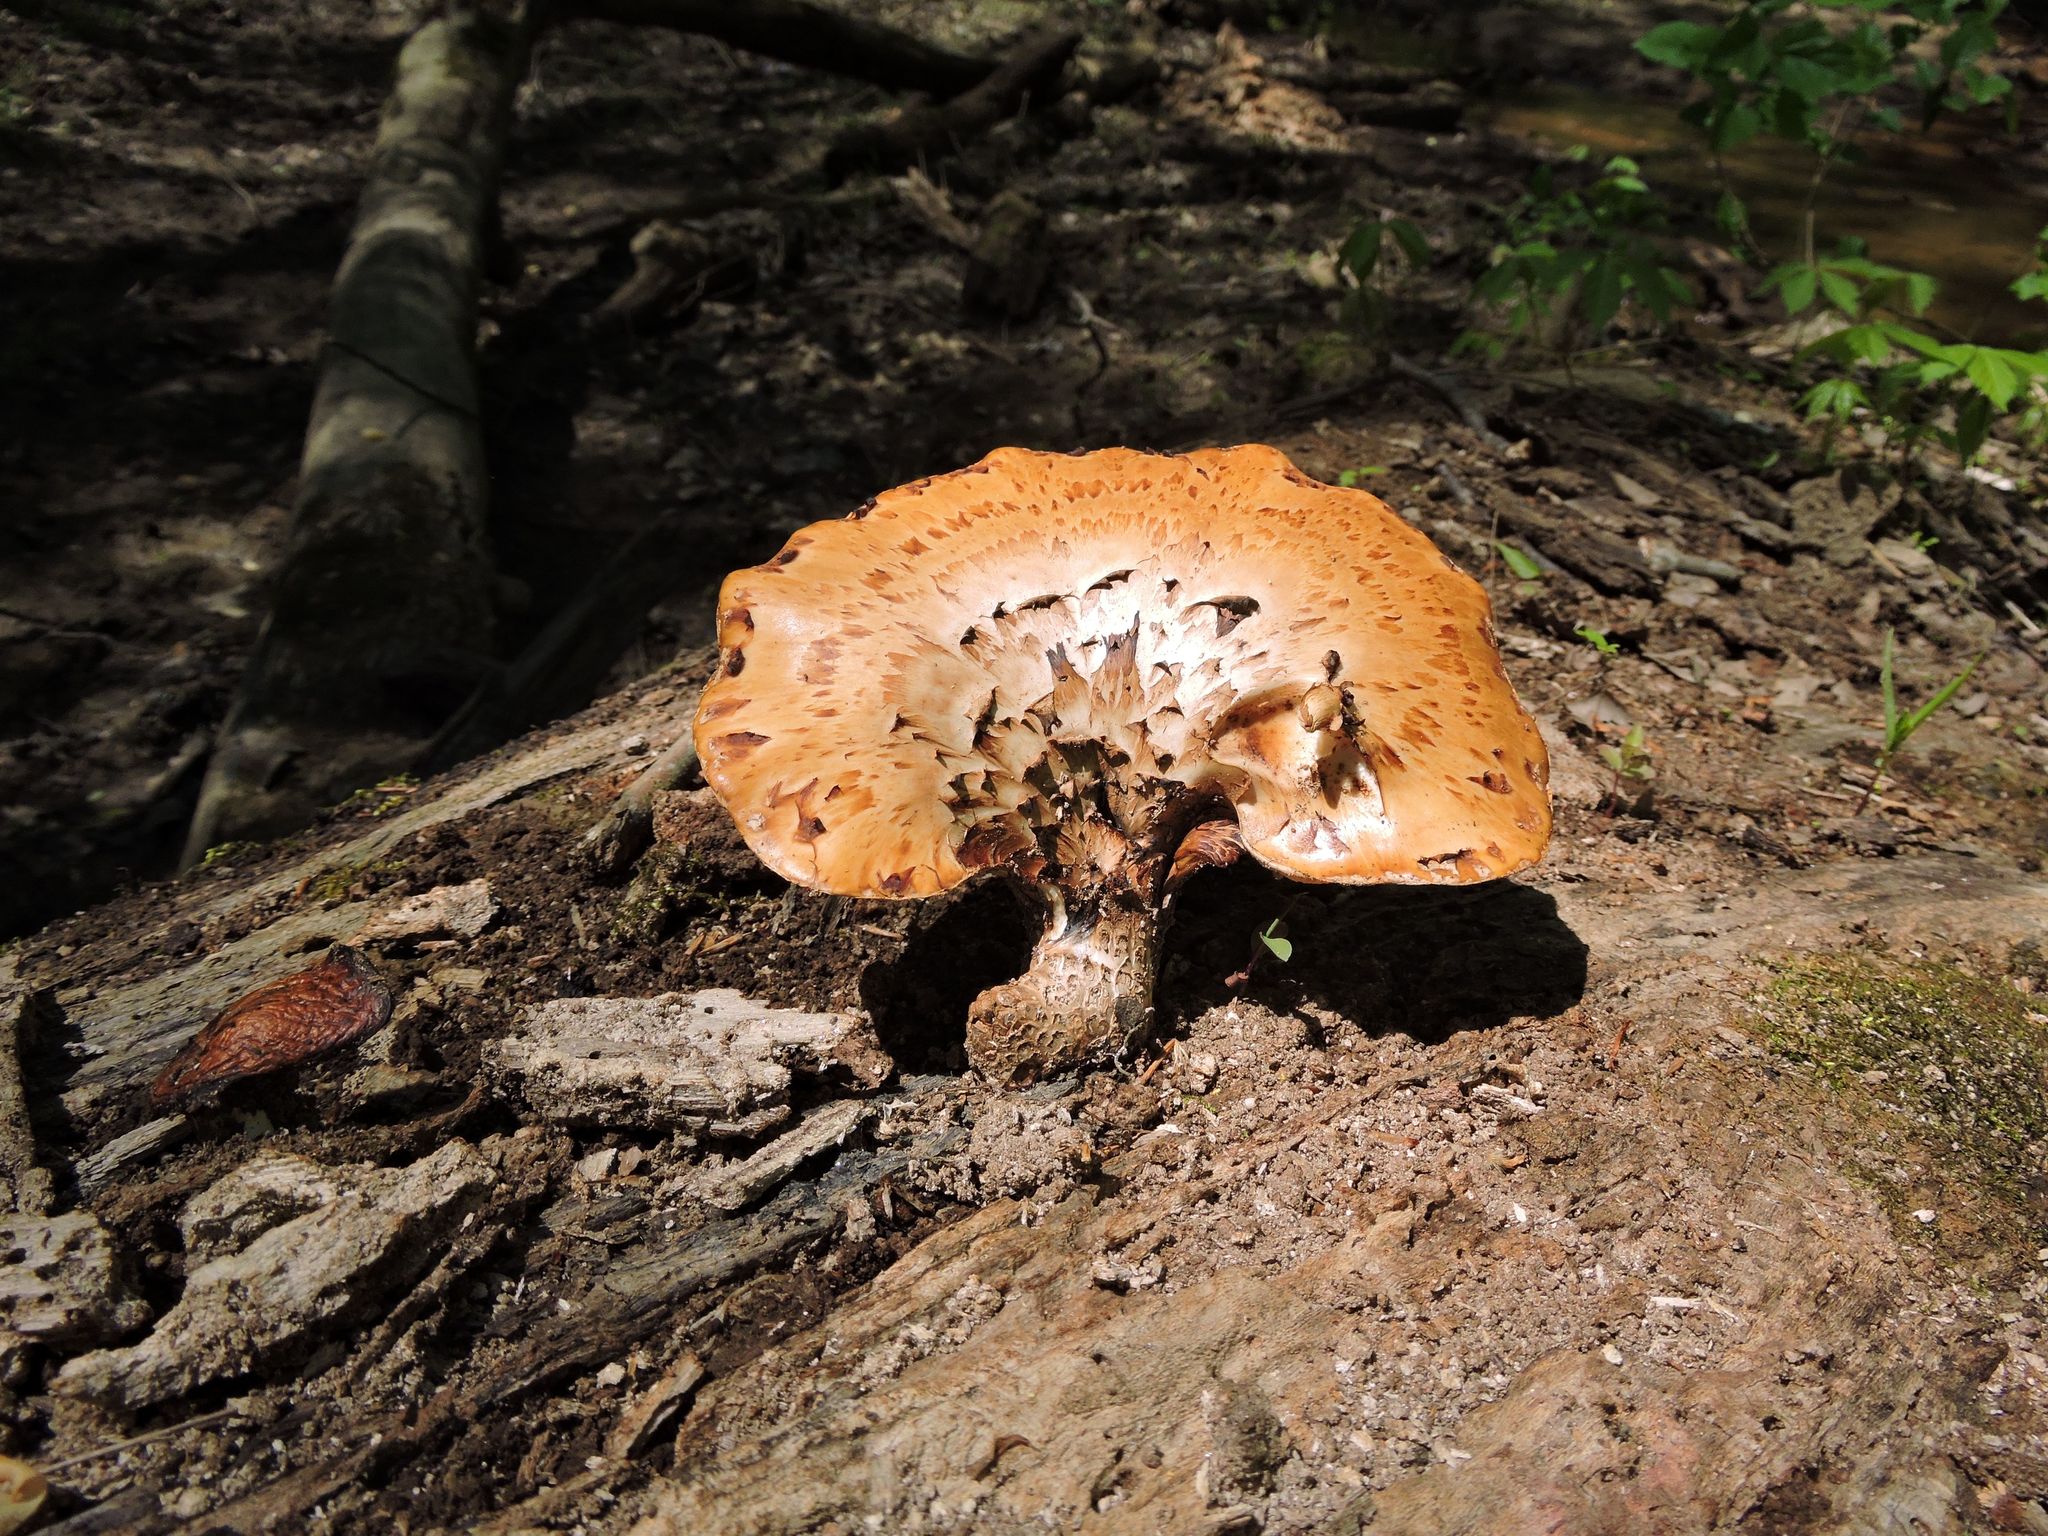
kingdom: Fungi
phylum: Basidiomycota
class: Agaricomycetes
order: Polyporales
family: Polyporaceae
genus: Cerioporus
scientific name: Cerioporus squamosus
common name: Dryad's saddle
